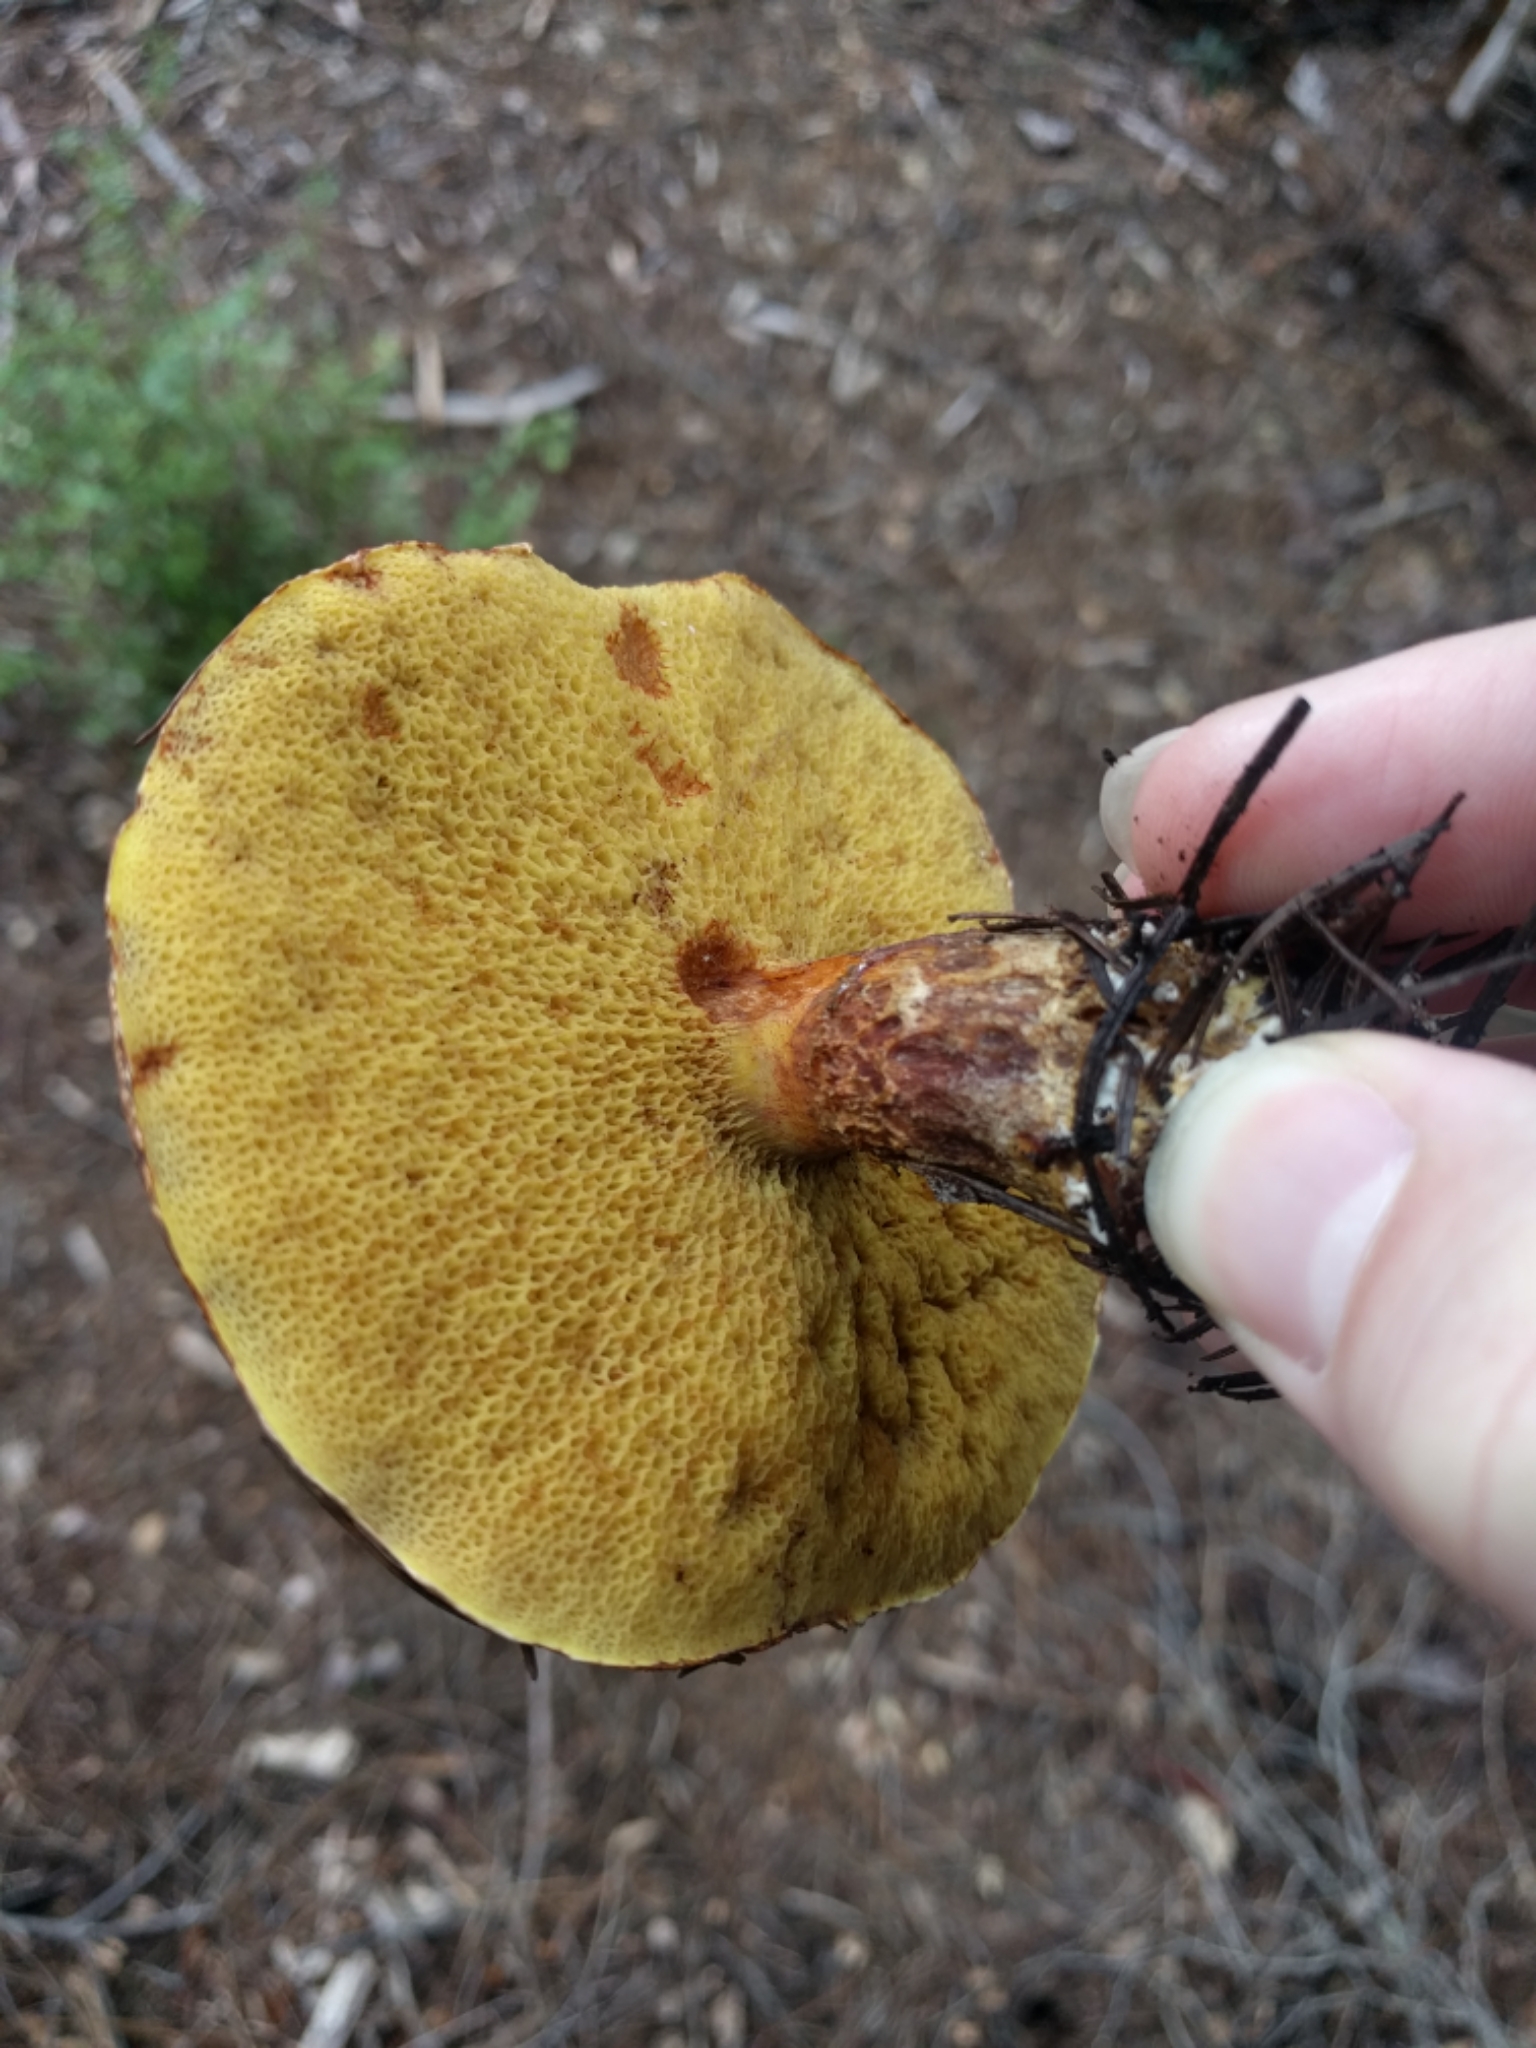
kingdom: Fungi
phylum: Basidiomycota
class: Agaricomycetes
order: Boletales
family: Suillaceae
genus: Suillus
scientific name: Suillus lakei
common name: Western painted suillus
